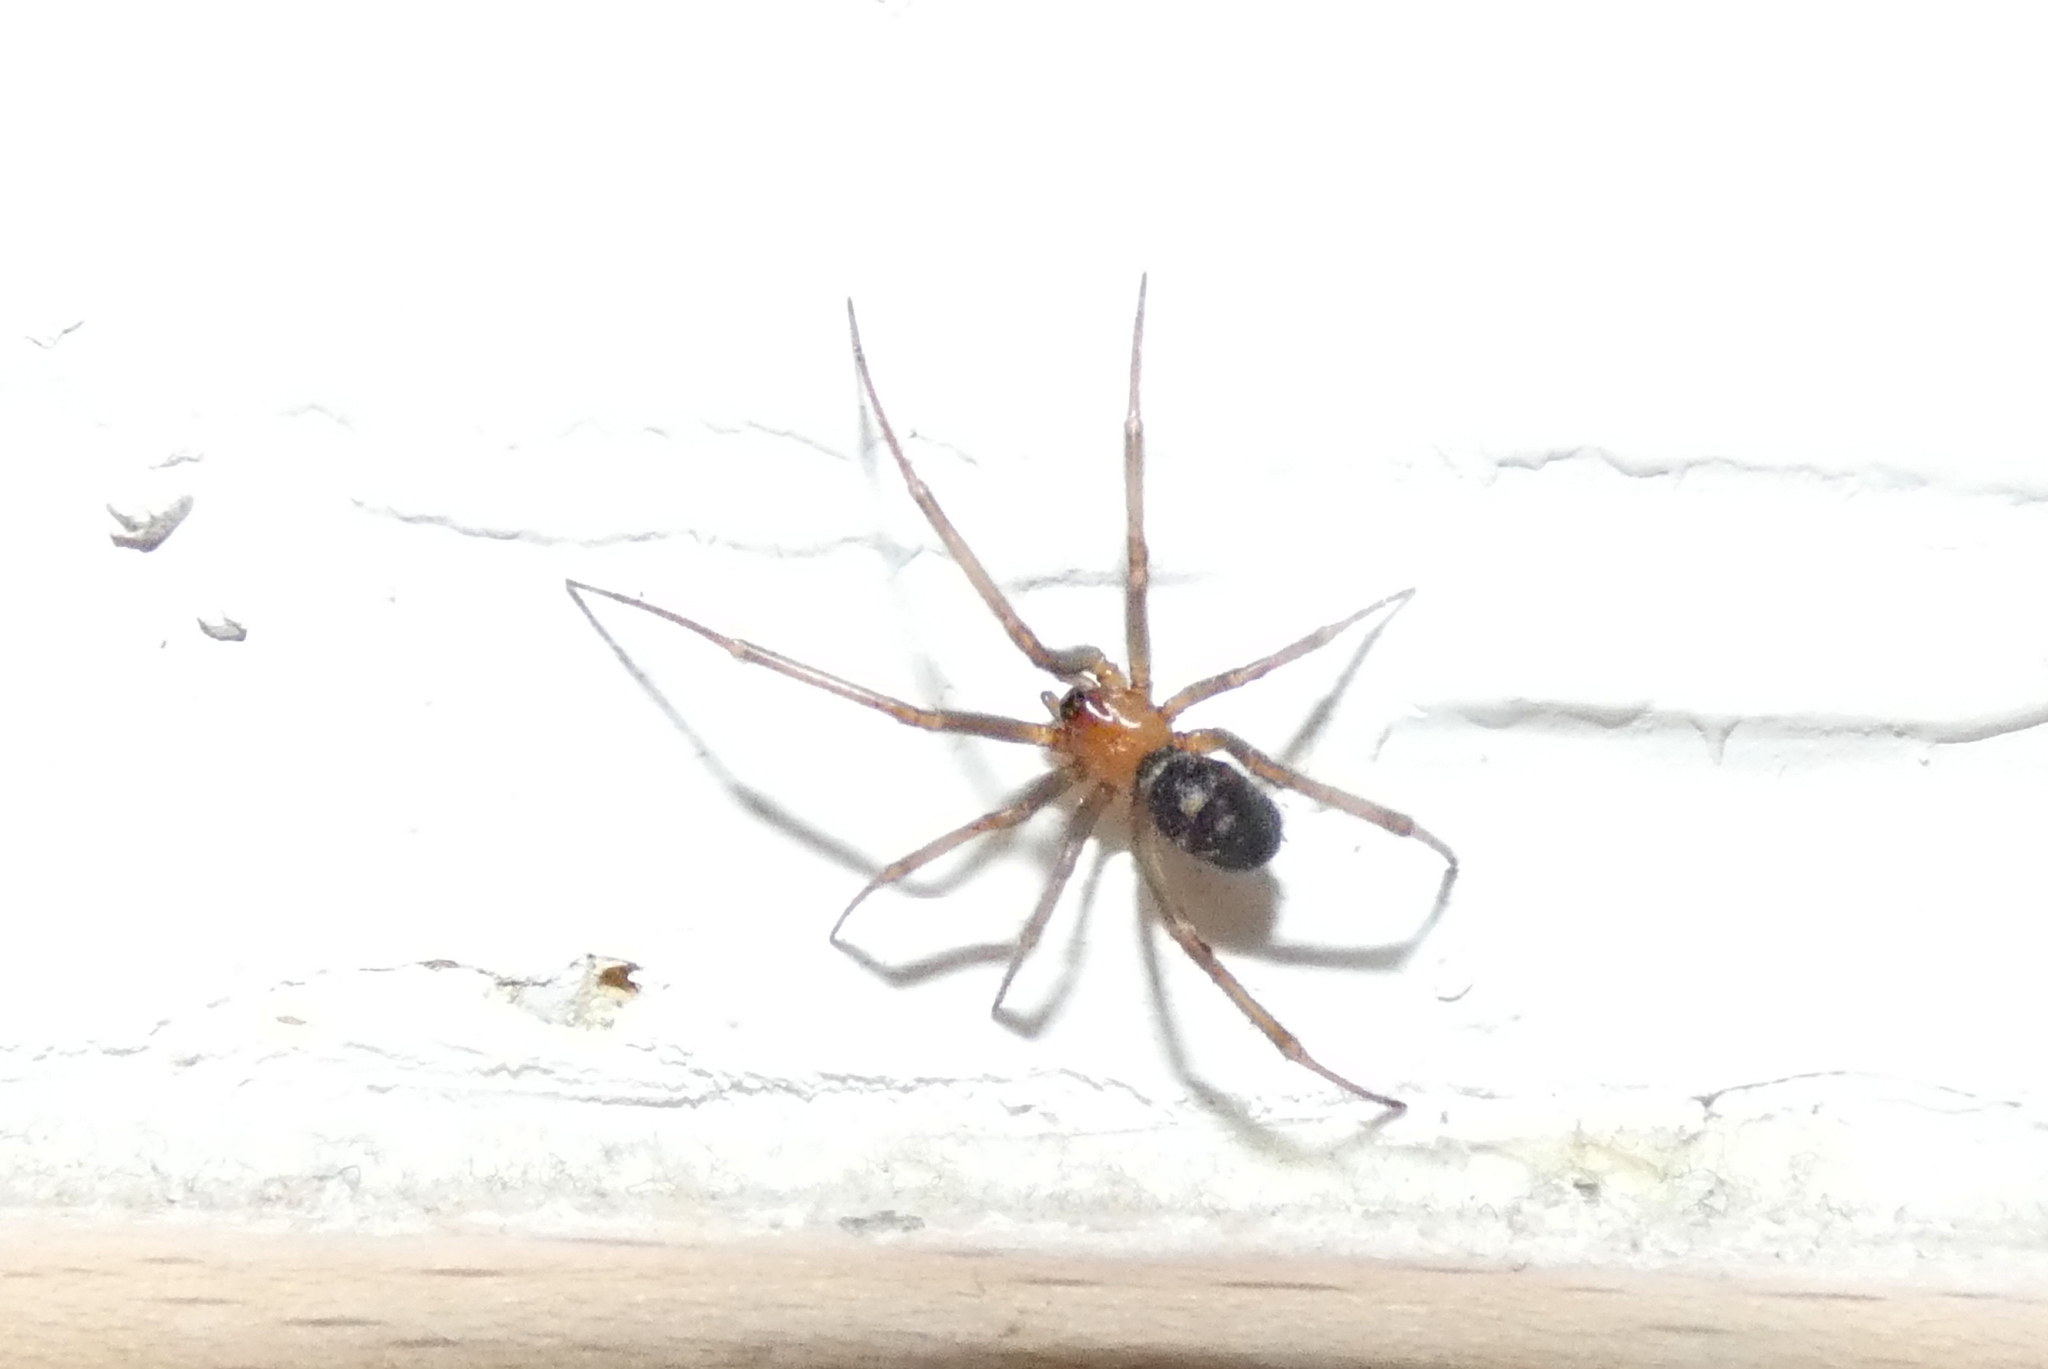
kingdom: Animalia
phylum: Arthropoda
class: Arachnida
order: Araneae
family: Theridiidae
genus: Steatoda
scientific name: Steatoda grossa
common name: False black widow
